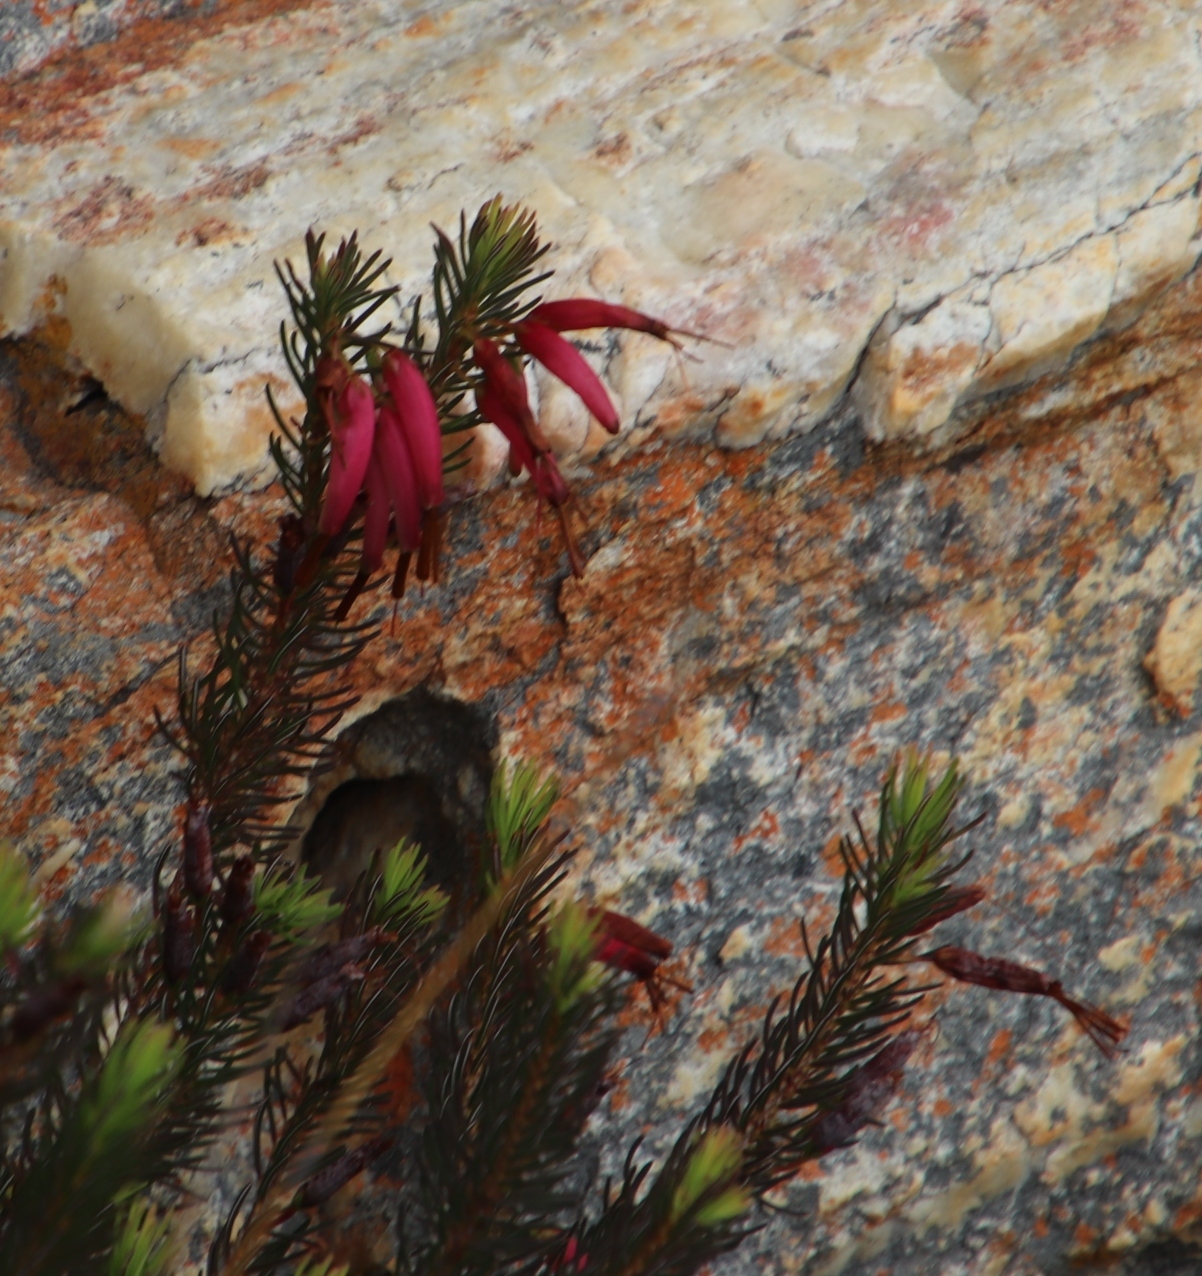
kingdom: Plantae
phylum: Tracheophyta
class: Magnoliopsida
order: Ericales
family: Ericaceae
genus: Erica
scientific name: Erica plukenetii
